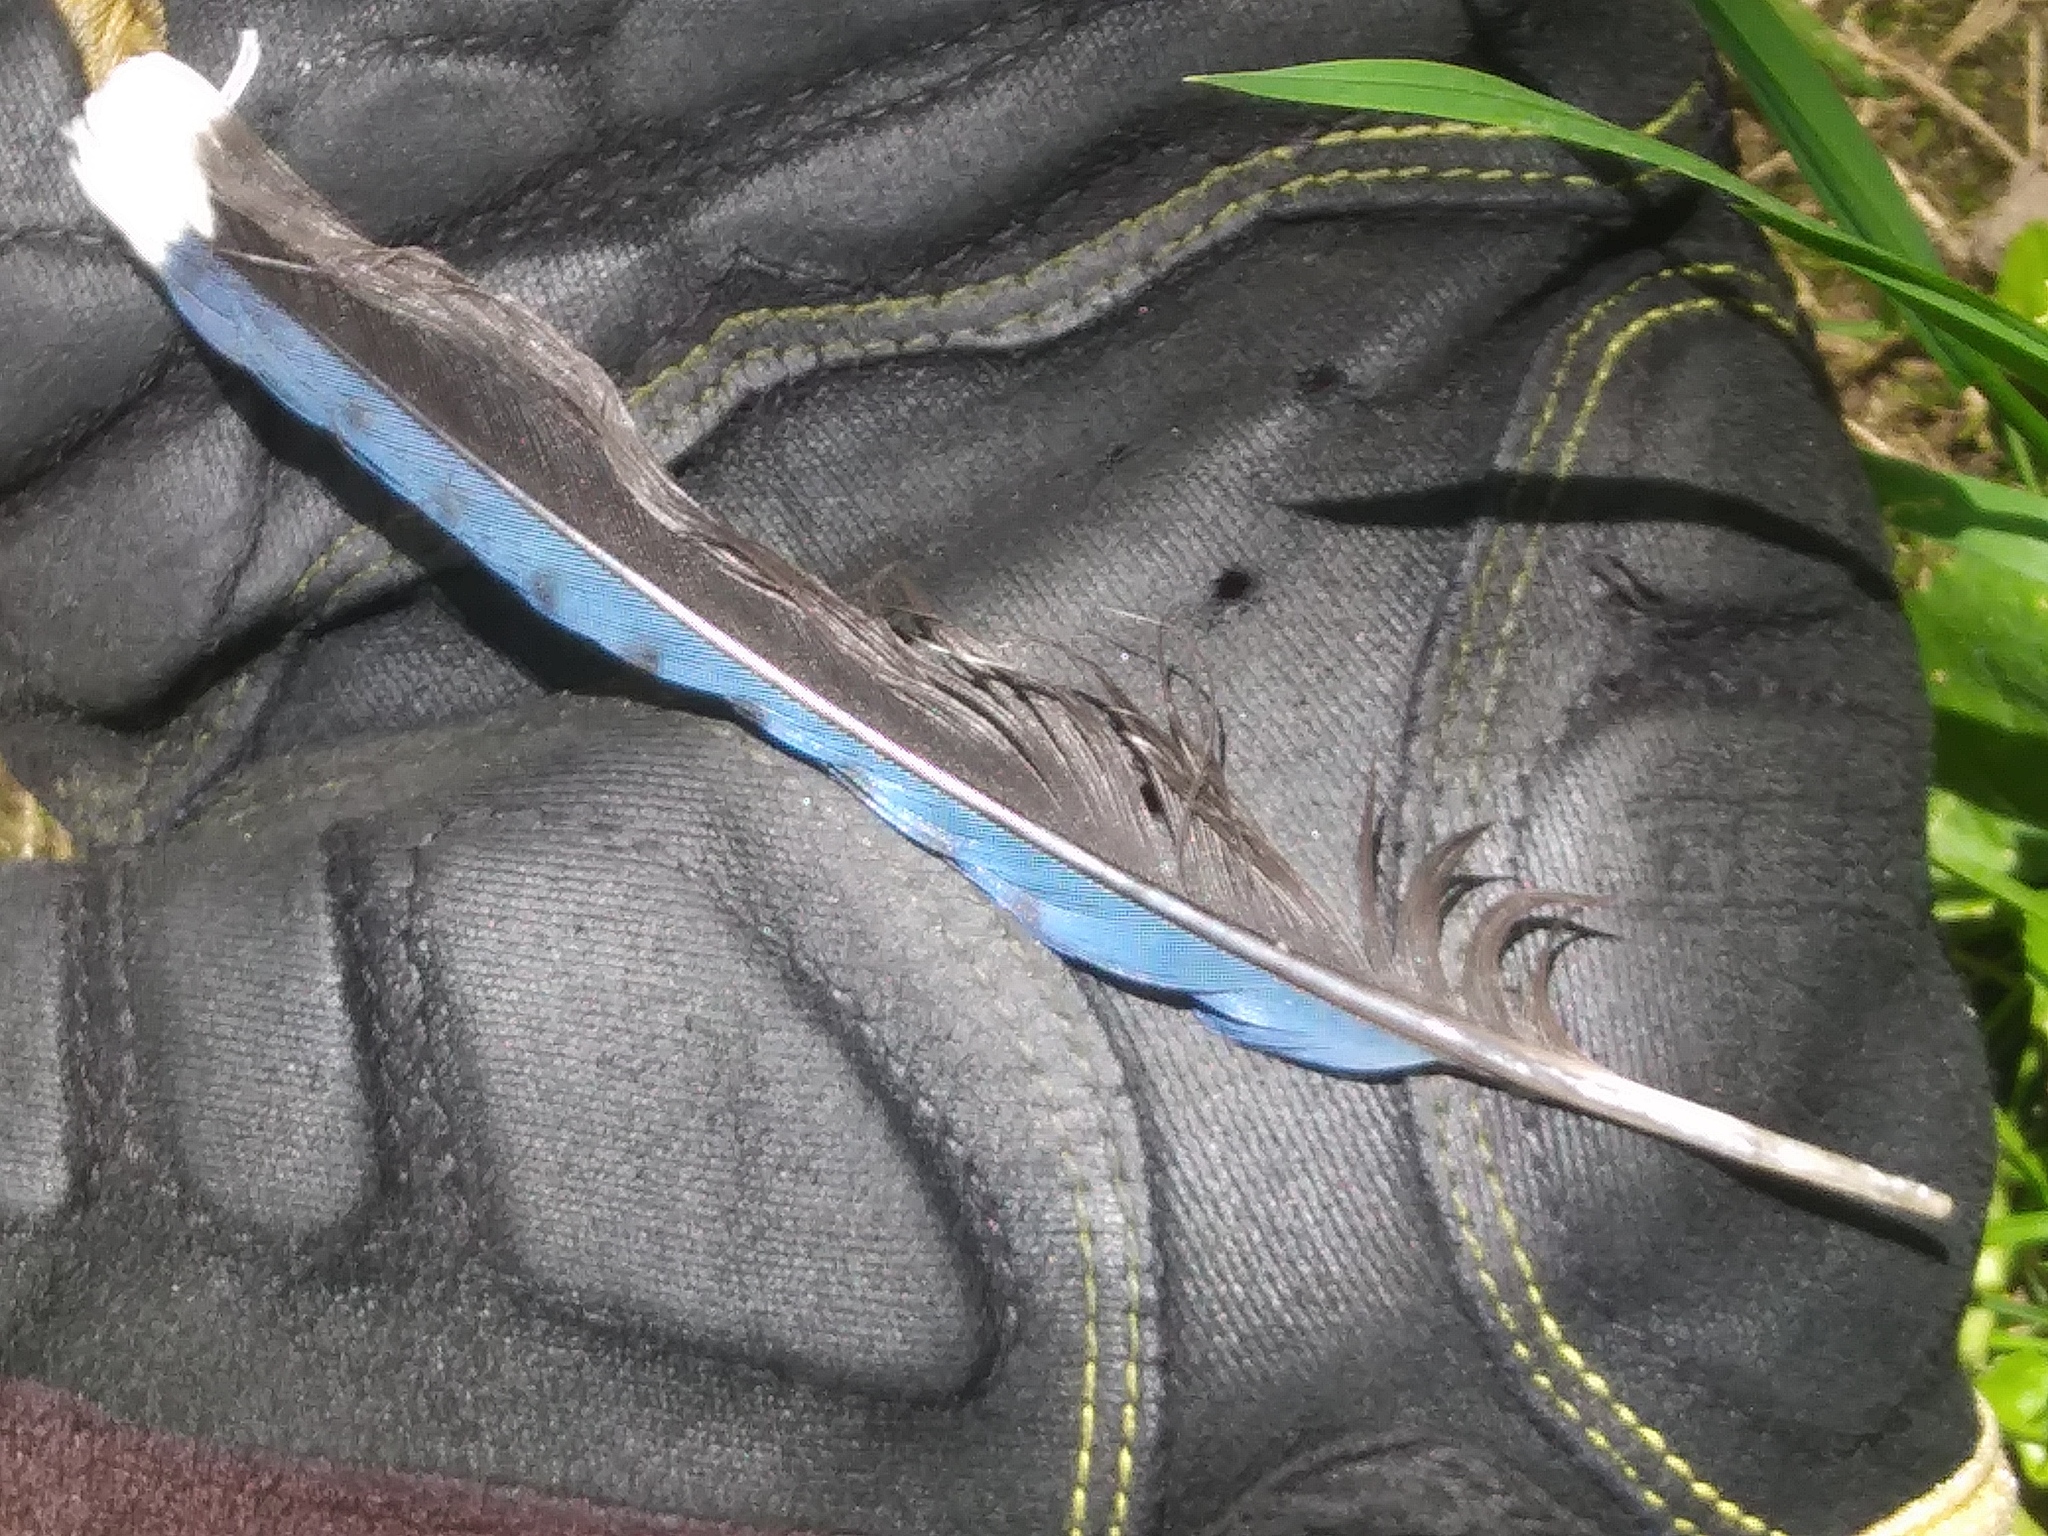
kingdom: Animalia
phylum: Chordata
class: Aves
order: Passeriformes
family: Corvidae
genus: Cyanocitta
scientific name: Cyanocitta cristata
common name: Blue jay
